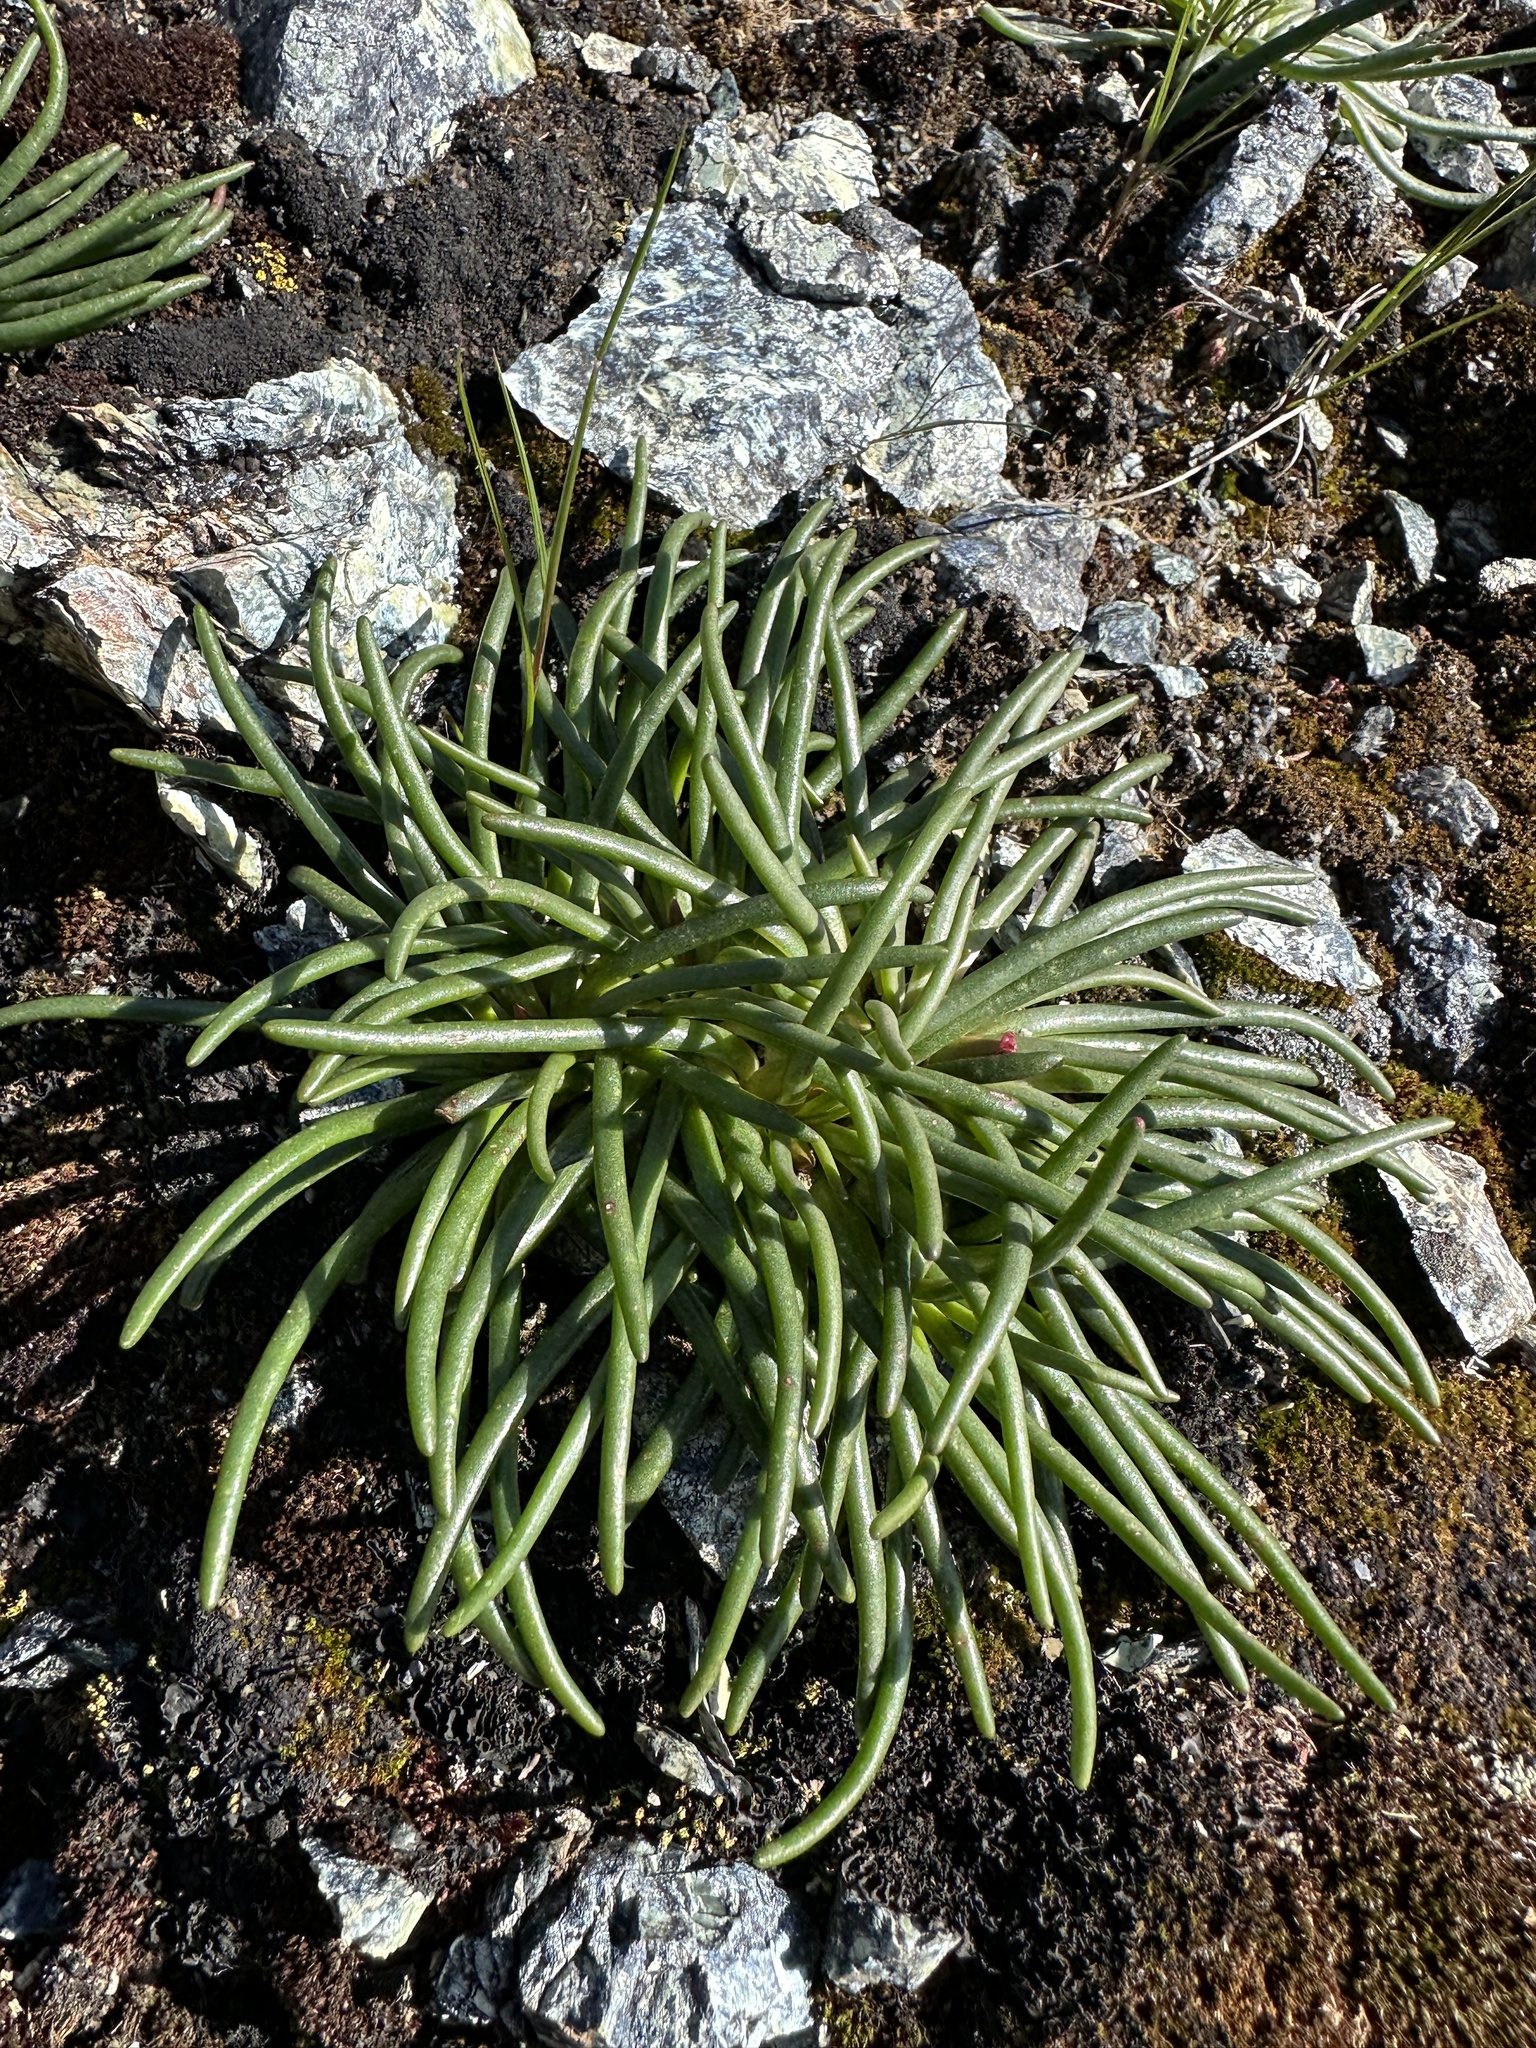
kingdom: Plantae
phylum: Tracheophyta
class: Magnoliopsida
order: Caryophyllales
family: Montiaceae
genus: Lewisia
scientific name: Lewisia rediviva
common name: Bitter-root
